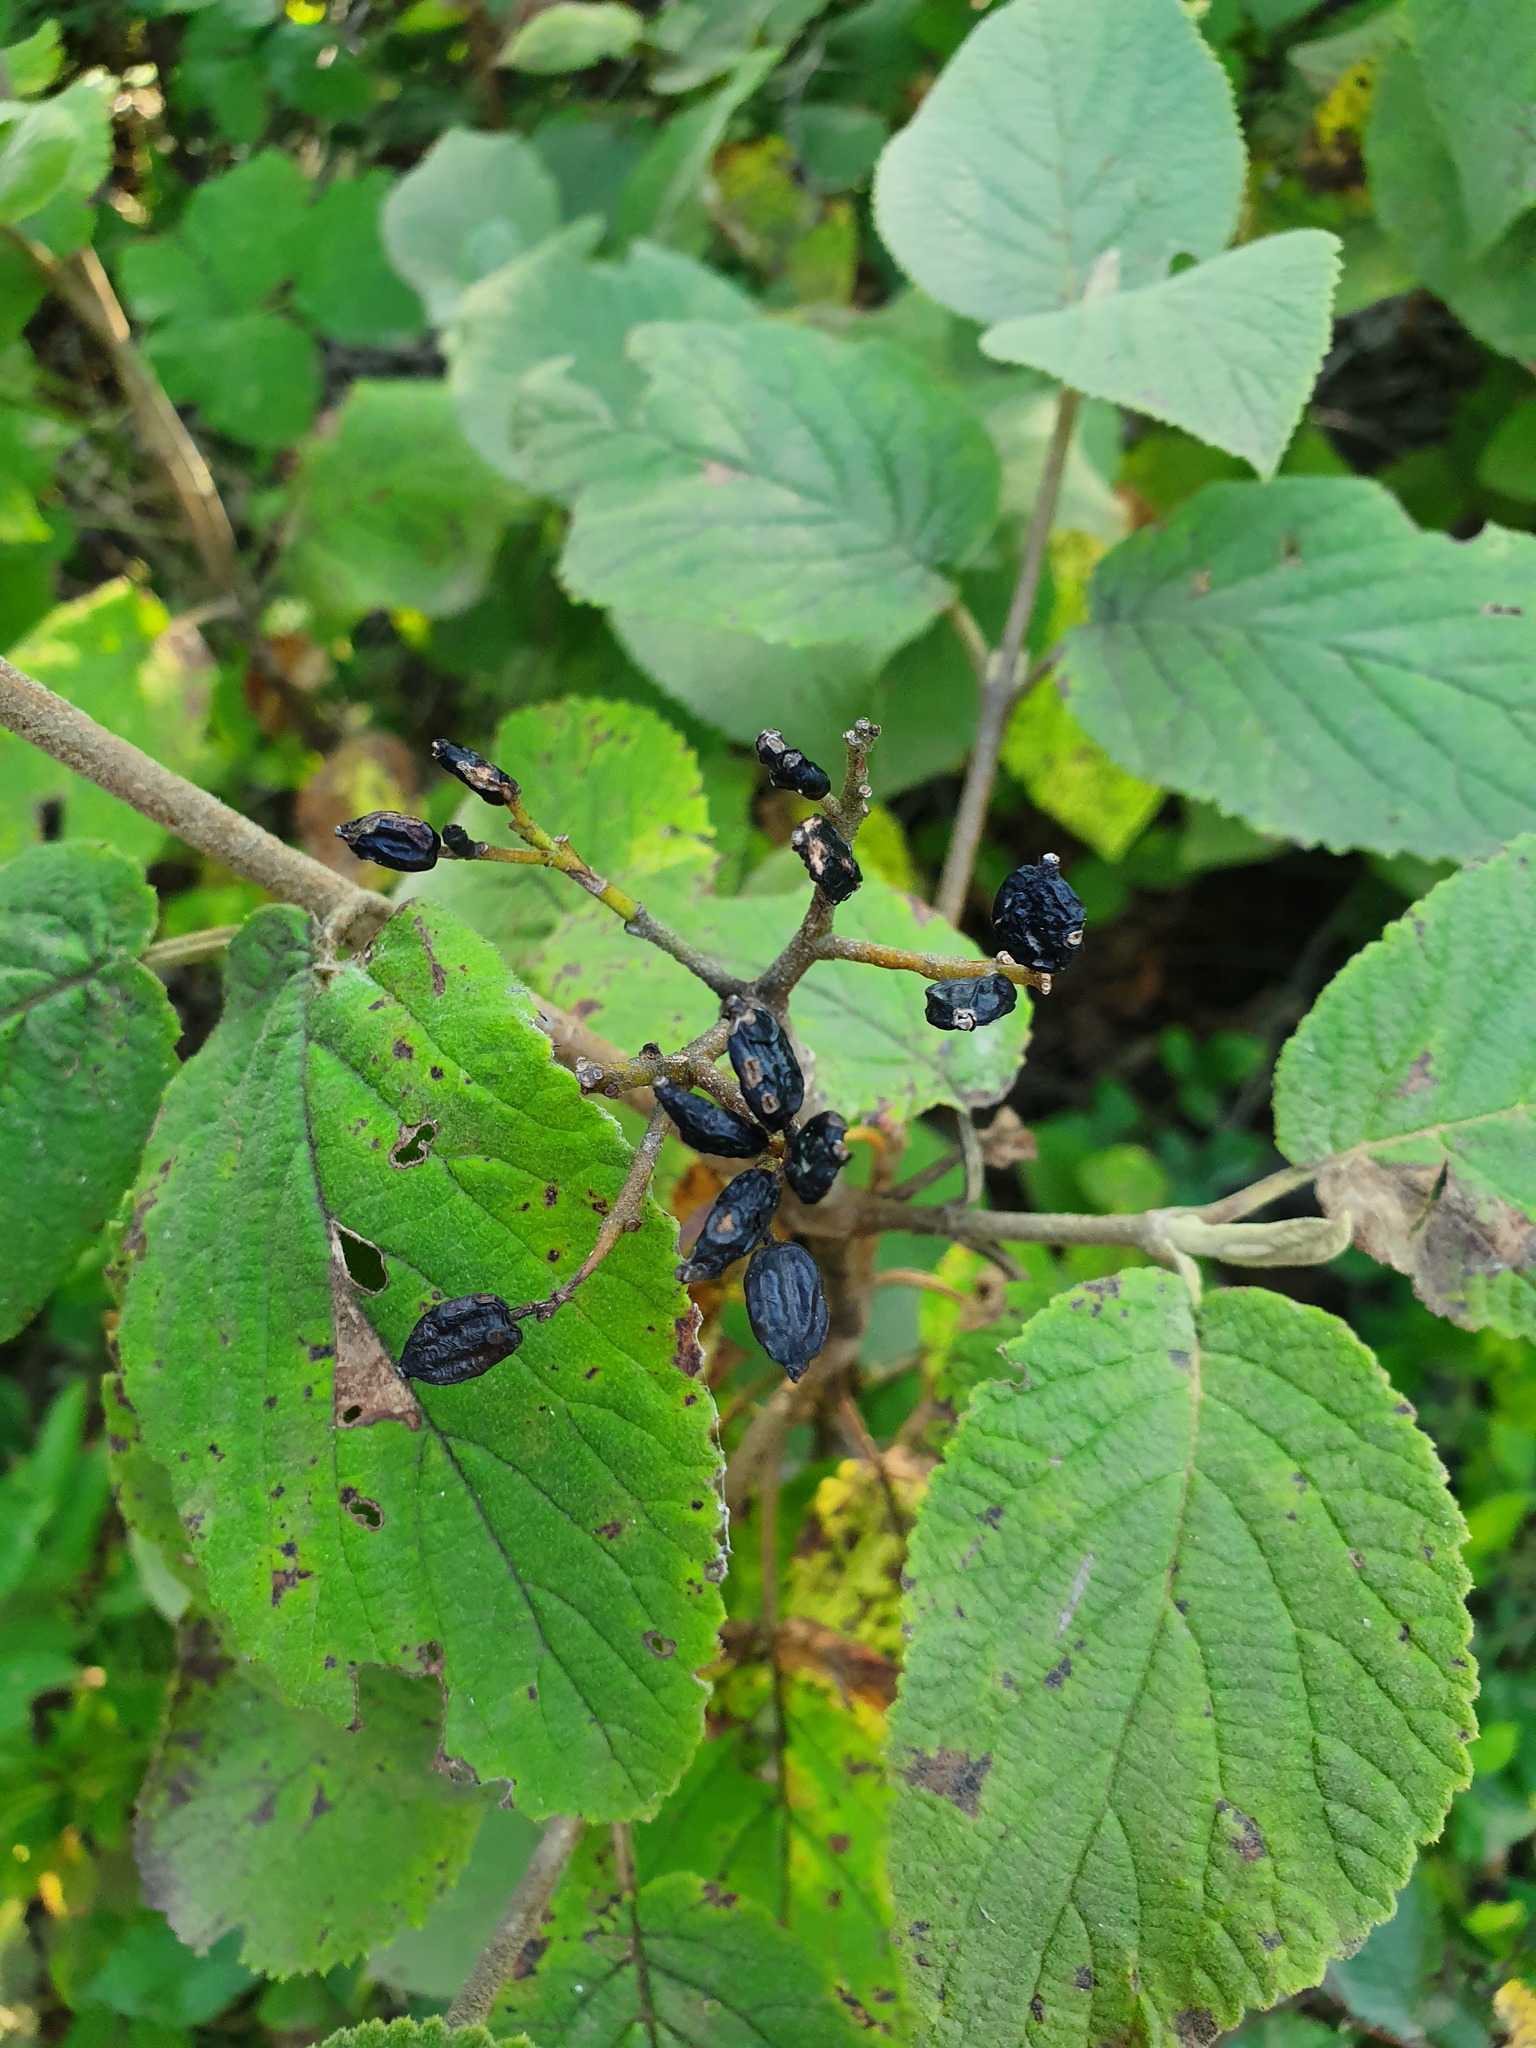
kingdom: Plantae
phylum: Tracheophyta
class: Magnoliopsida
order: Dipsacales
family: Viburnaceae
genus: Viburnum
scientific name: Viburnum lantana
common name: Wayfaring tree
